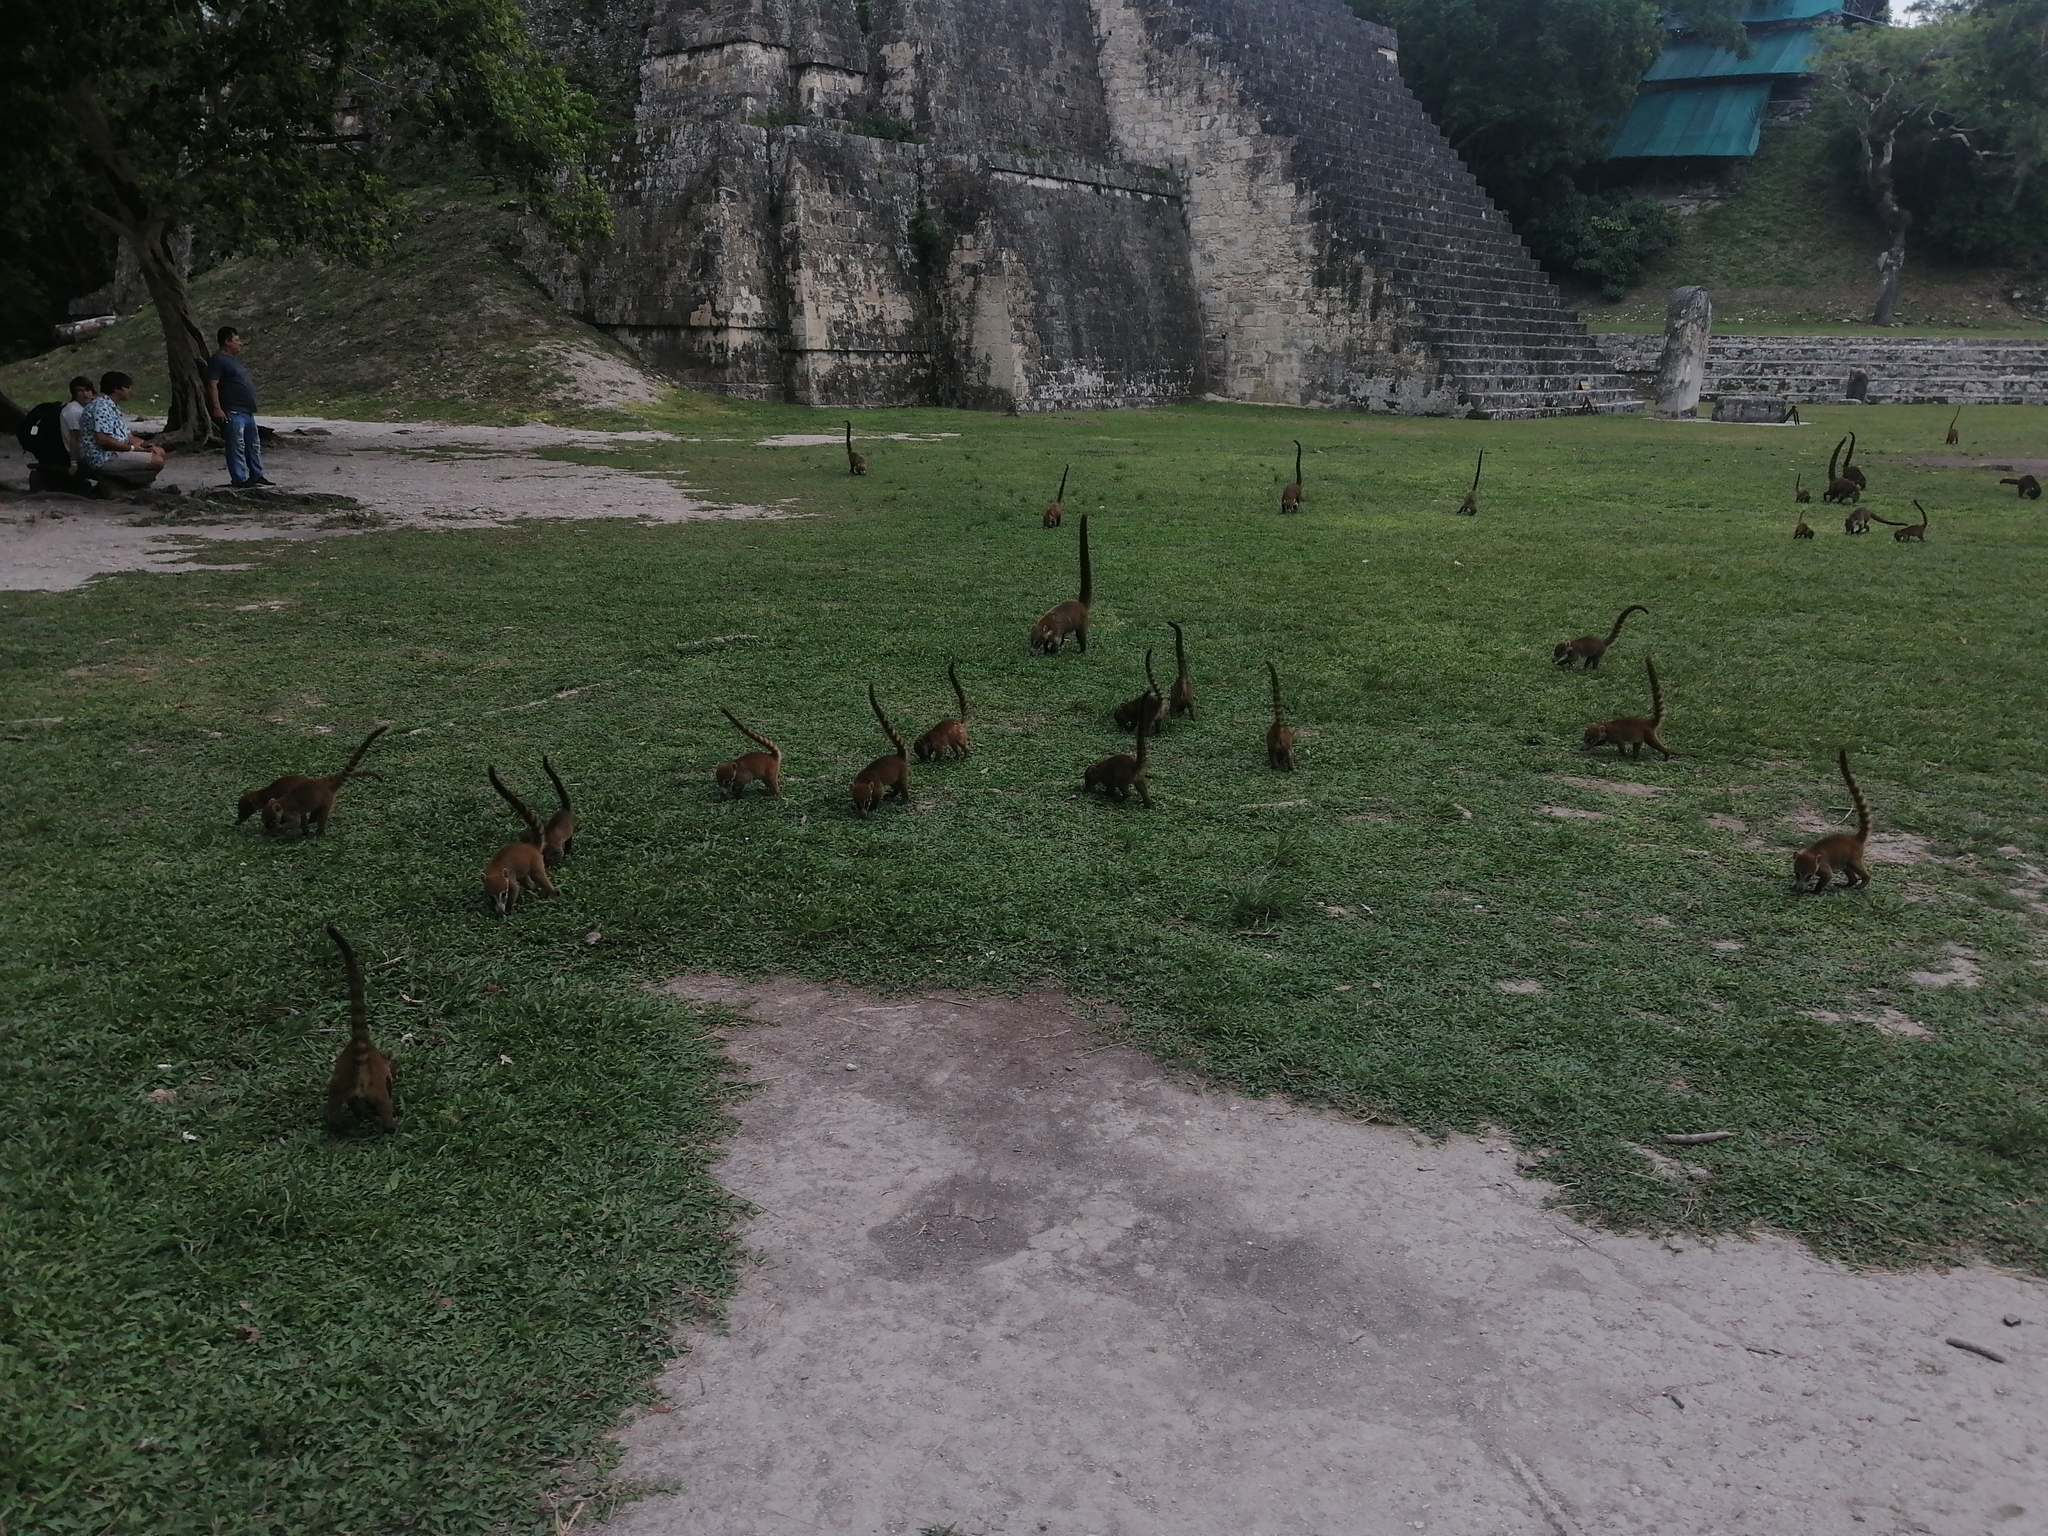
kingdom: Animalia
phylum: Chordata
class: Mammalia
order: Carnivora
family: Procyonidae
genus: Nasua
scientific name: Nasua narica
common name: White-nosed coati
